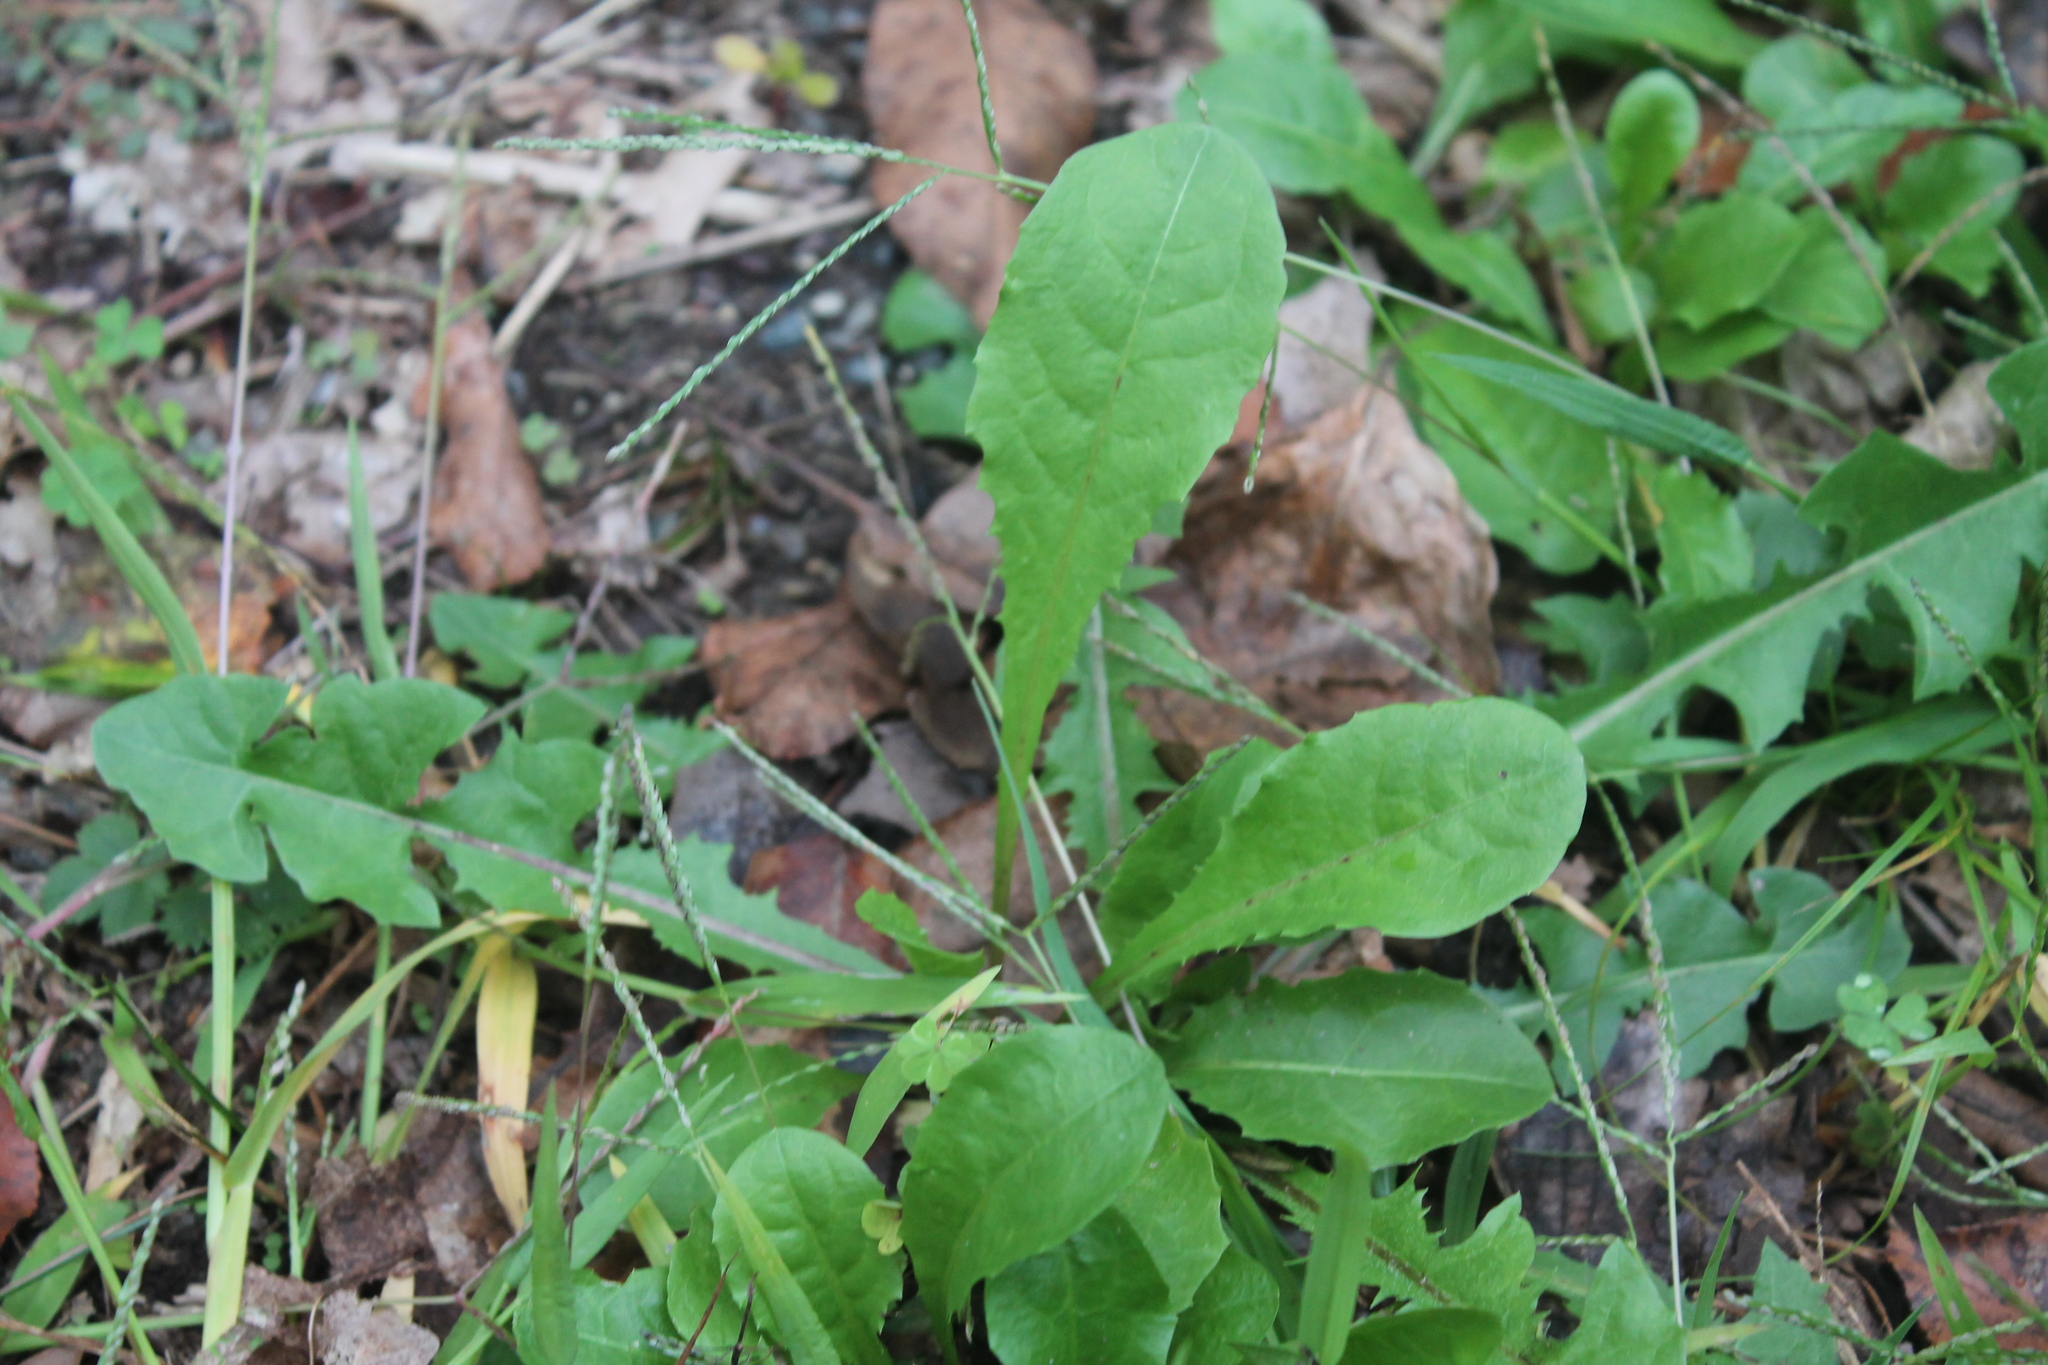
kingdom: Plantae
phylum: Tracheophyta
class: Magnoliopsida
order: Asterales
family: Asteraceae
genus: Taraxacum
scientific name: Taraxacum officinale
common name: Common dandelion
